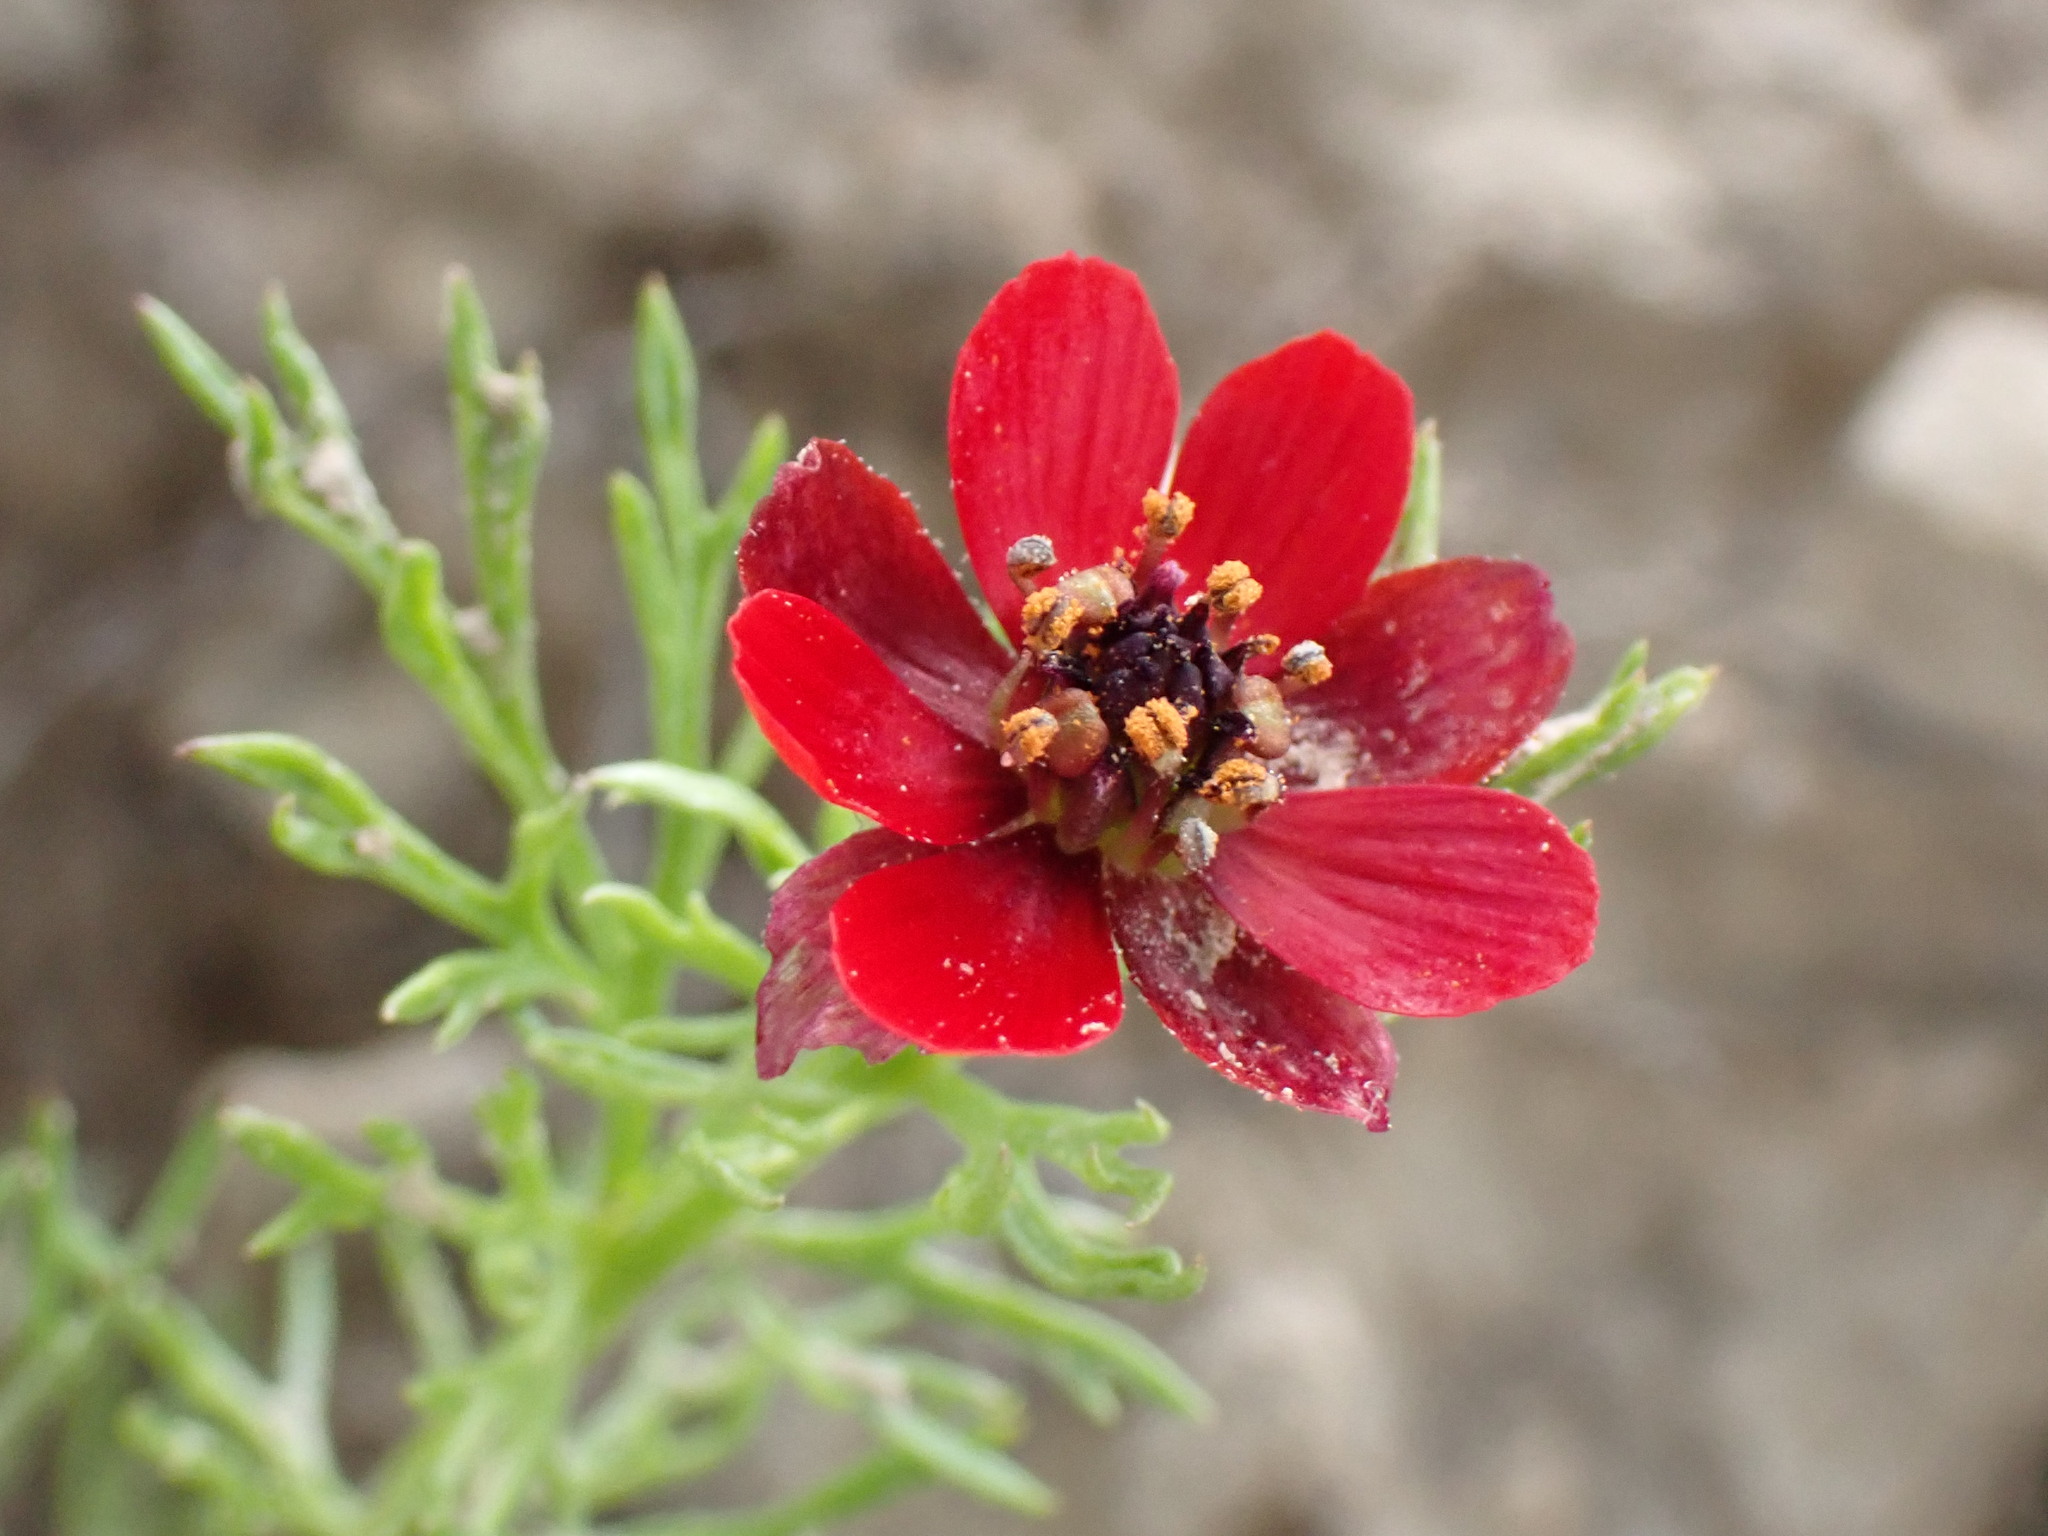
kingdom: Plantae
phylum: Tracheophyta
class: Magnoliopsida
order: Ranunculales
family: Ranunculaceae
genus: Adonis
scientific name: Adonis annua
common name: Pheasant's-eye
